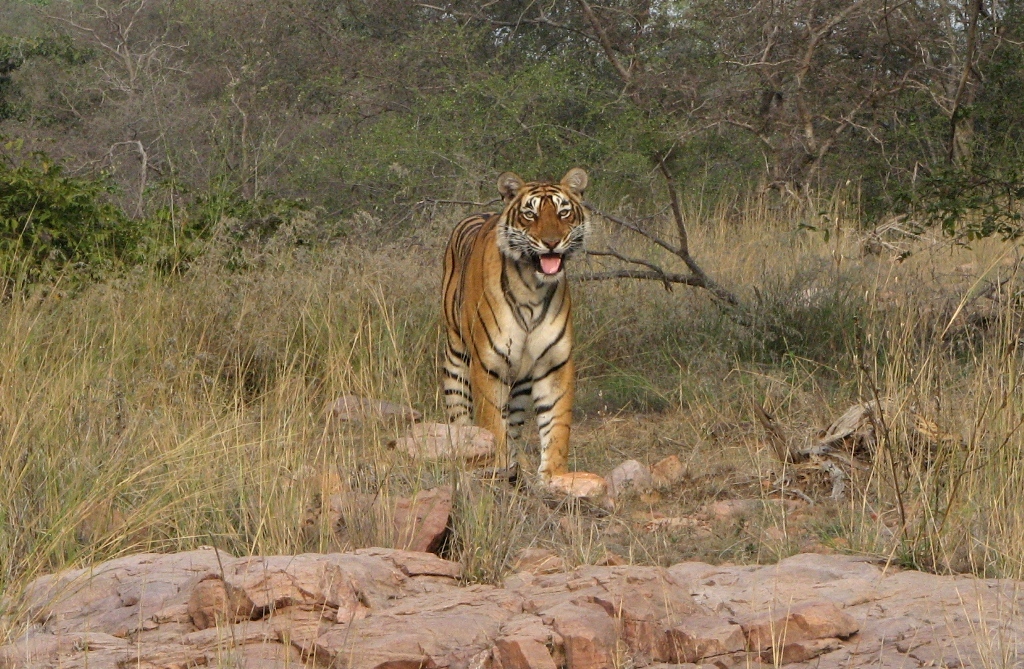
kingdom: Animalia
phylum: Chordata
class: Mammalia
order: Carnivora
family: Felidae
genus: Panthera
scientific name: Panthera tigris
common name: Tiger
